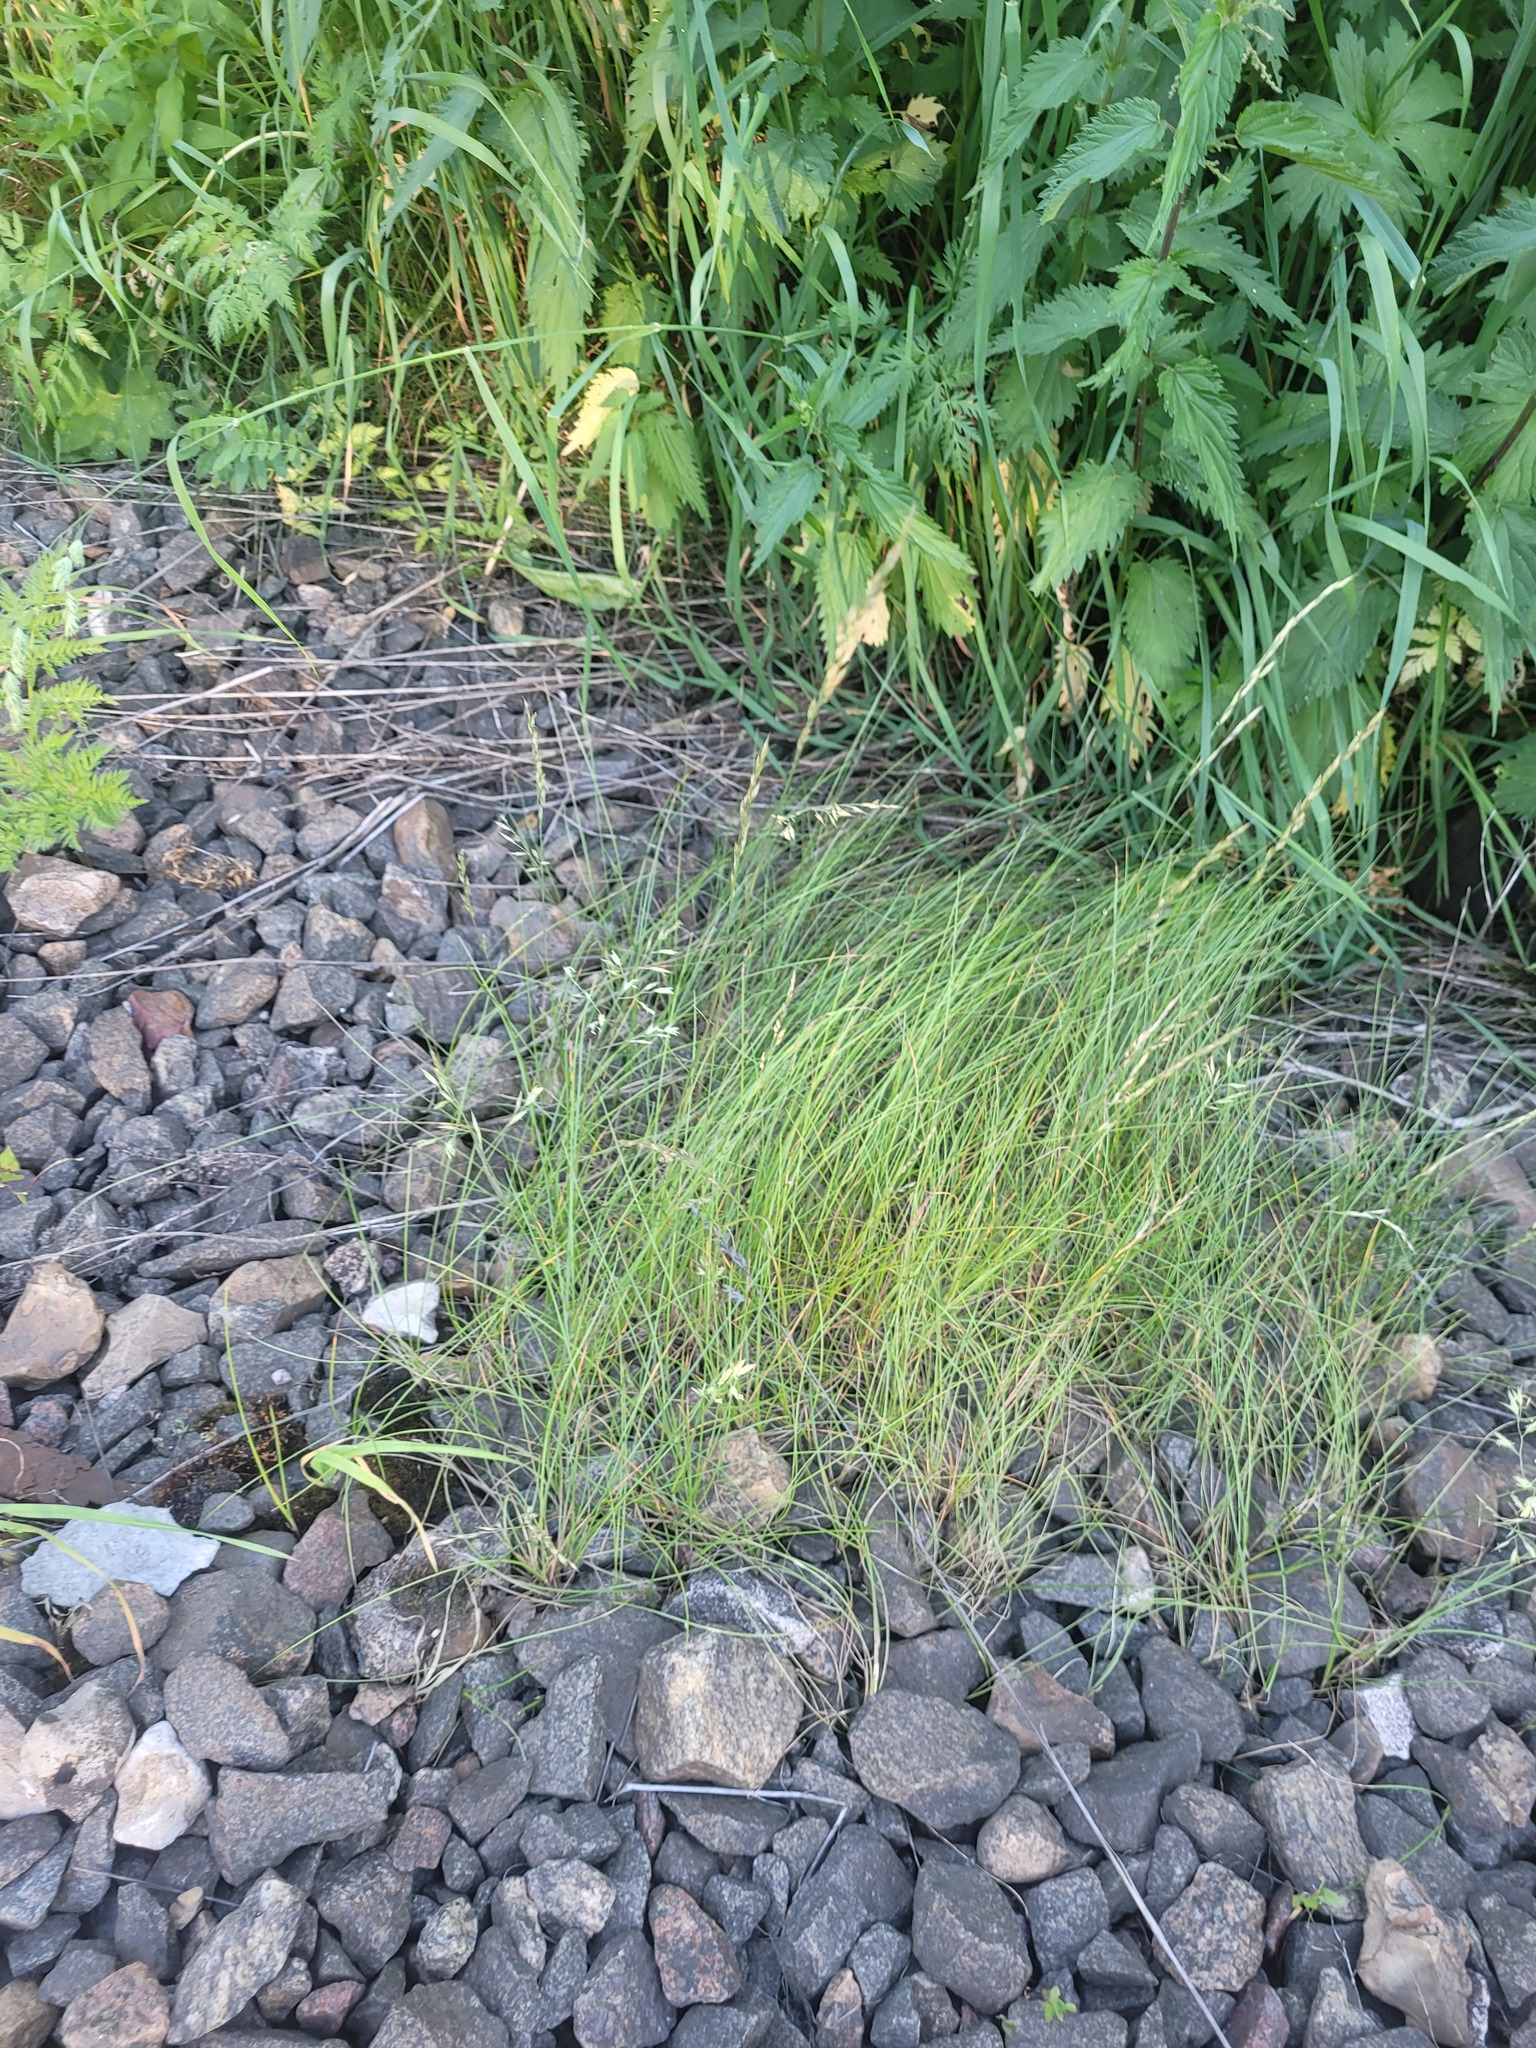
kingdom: Plantae
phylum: Tracheophyta
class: Liliopsida
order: Poales
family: Poaceae
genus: Festuca
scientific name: Festuca rubra
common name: Red fescue
